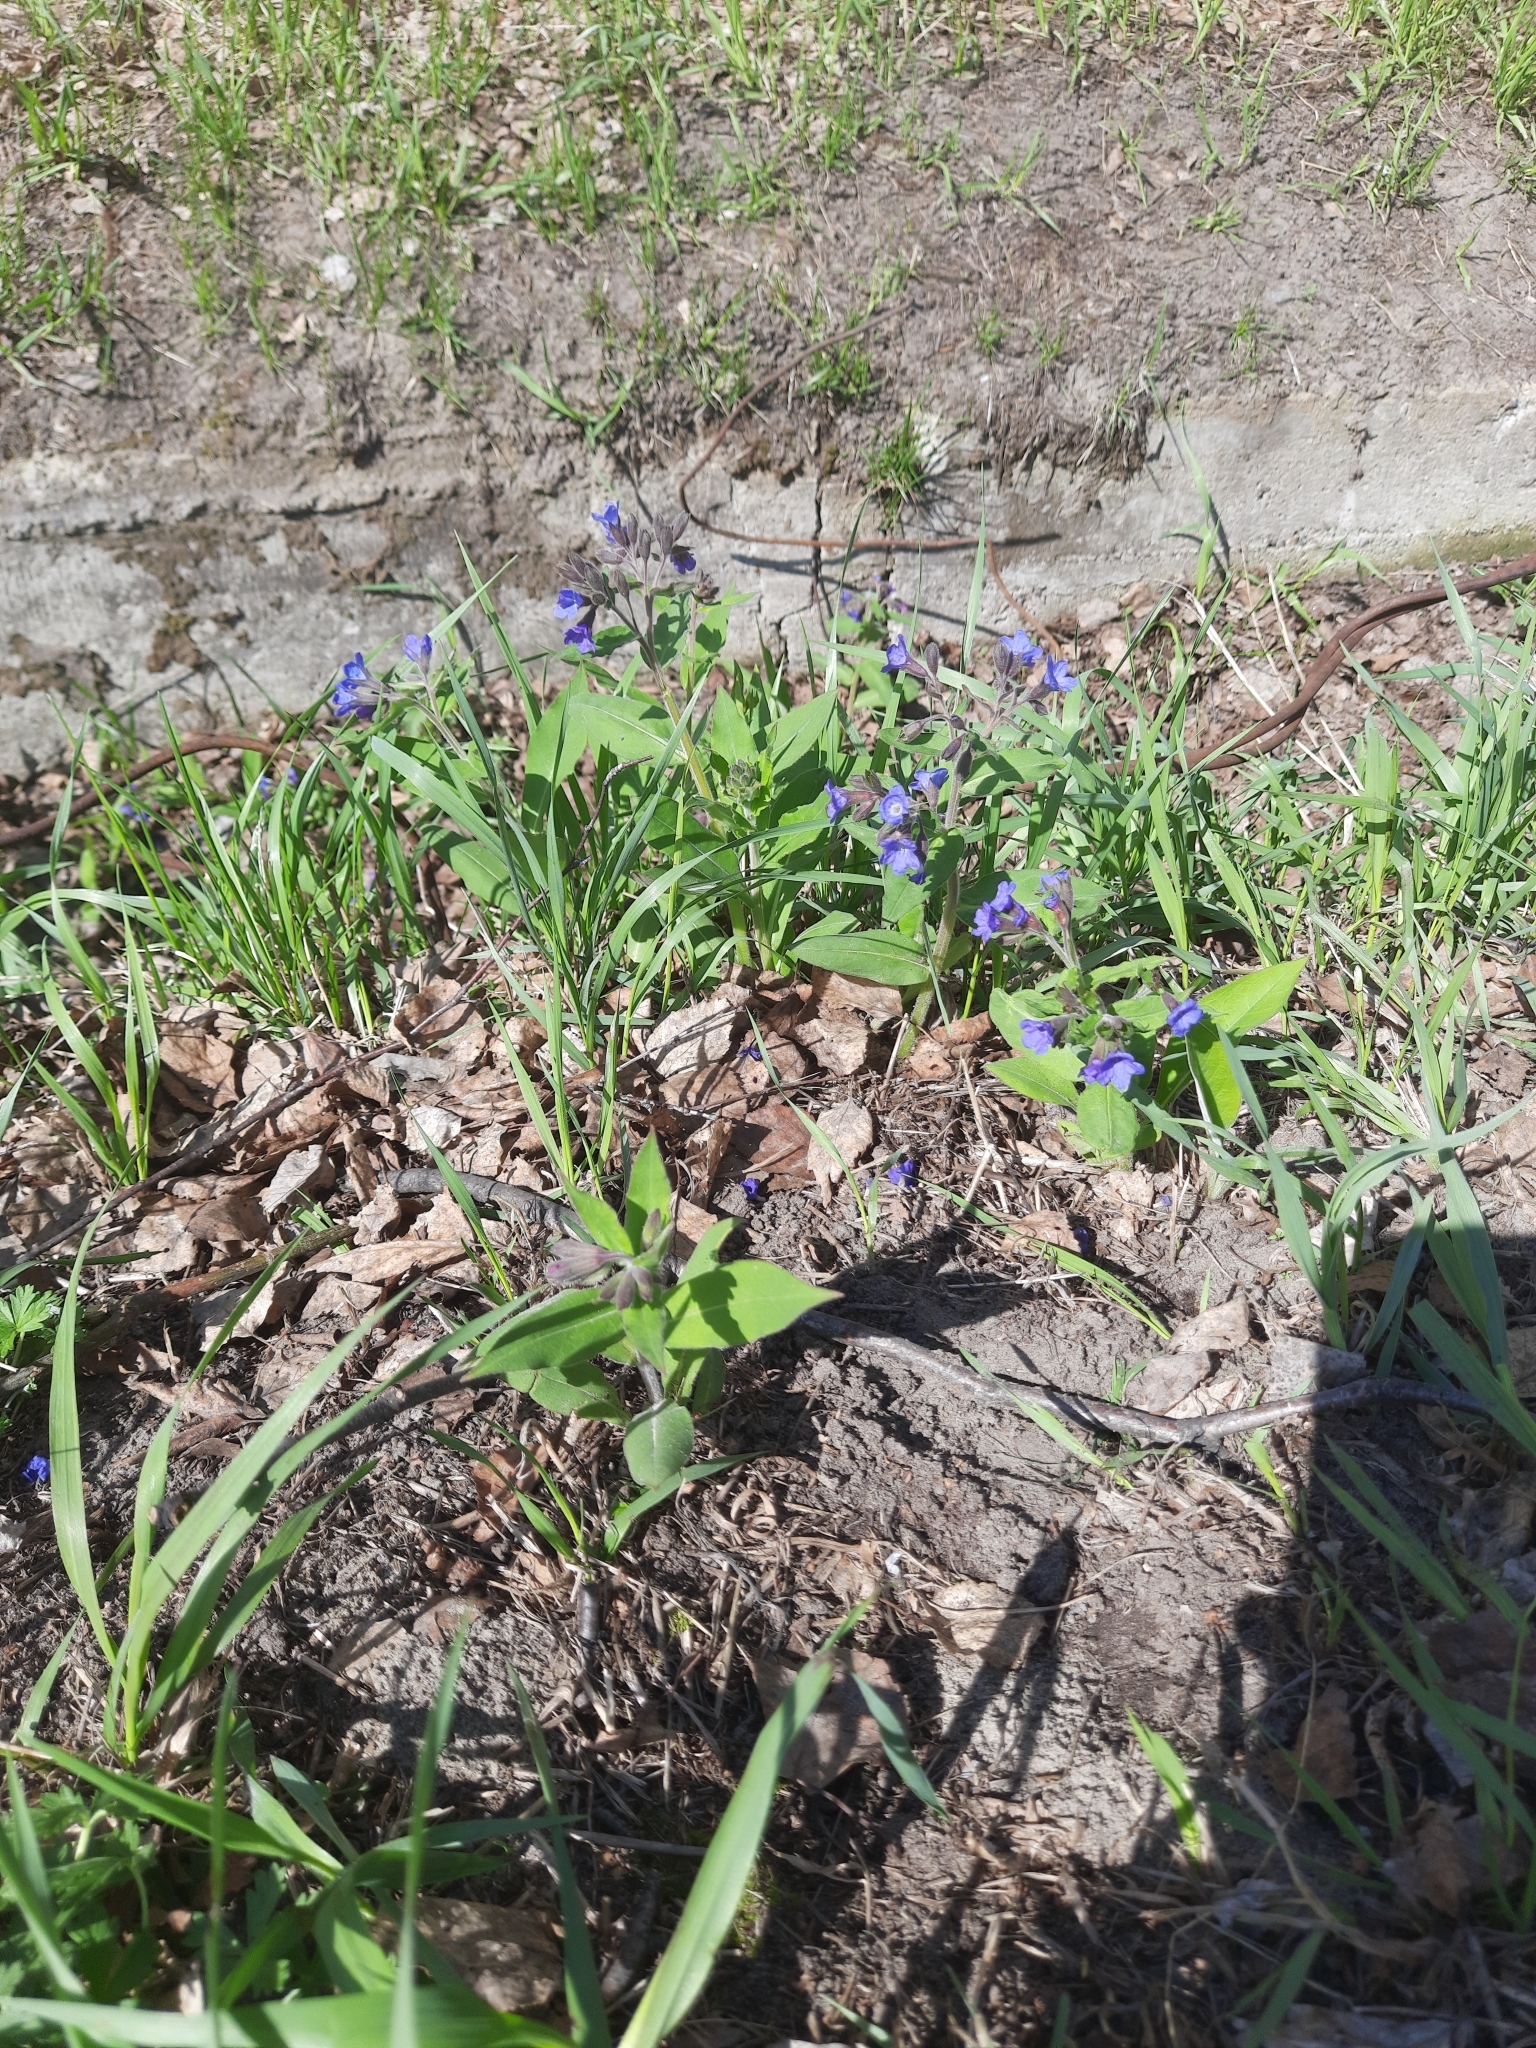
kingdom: Plantae
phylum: Tracheophyta
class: Magnoliopsida
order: Boraginales
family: Boraginaceae
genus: Pulmonaria
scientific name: Pulmonaria mollis
